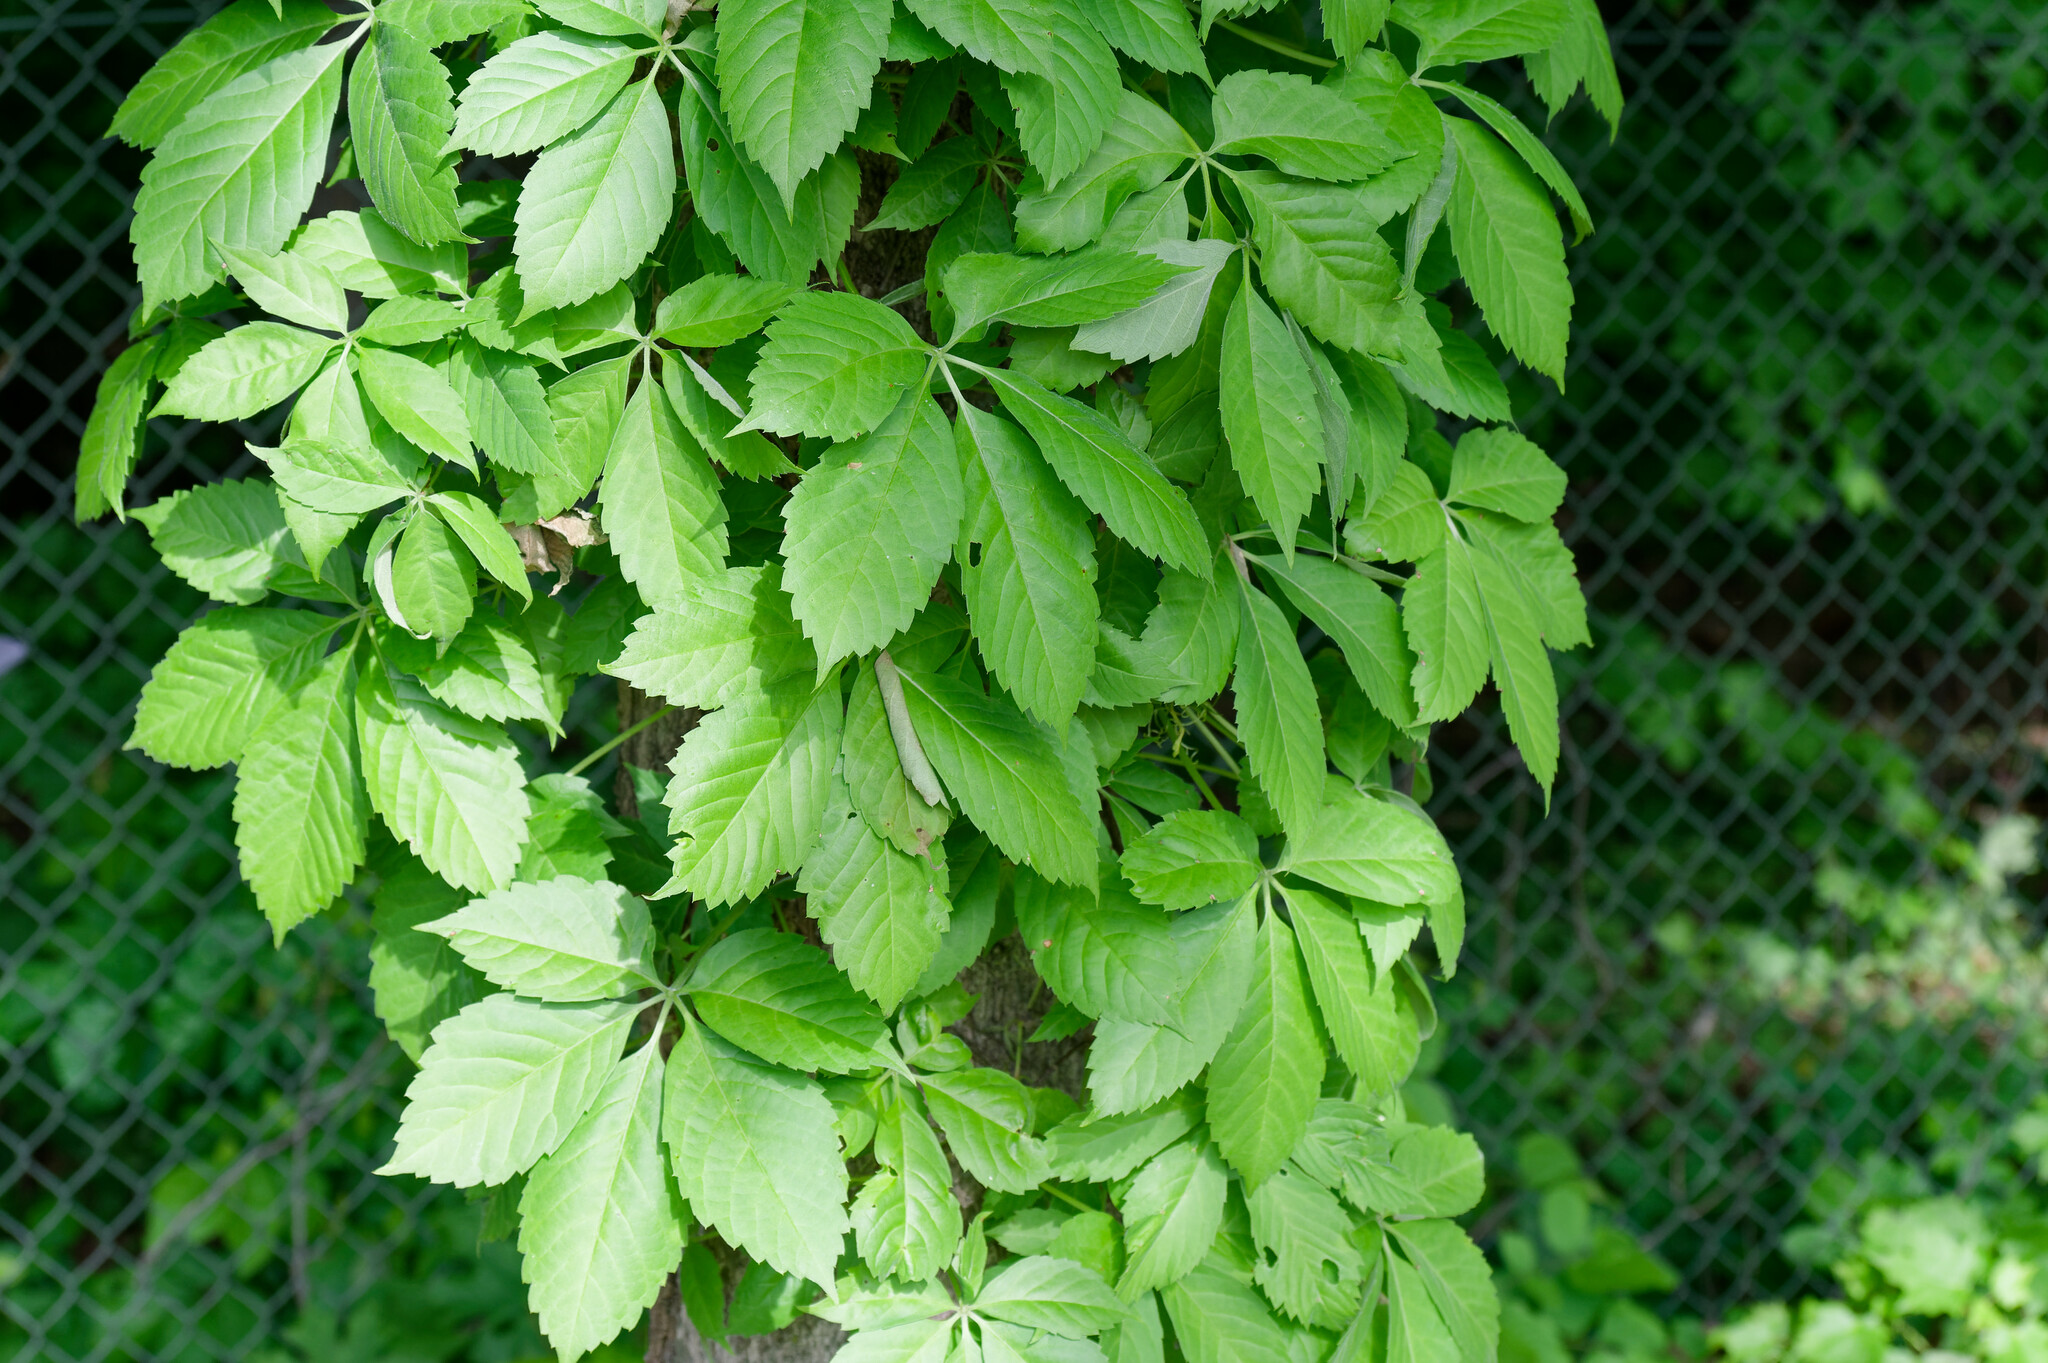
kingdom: Plantae
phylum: Tracheophyta
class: Magnoliopsida
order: Vitales
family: Vitaceae
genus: Parthenocissus
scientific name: Parthenocissus quinquefolia
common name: Virginia-creeper
